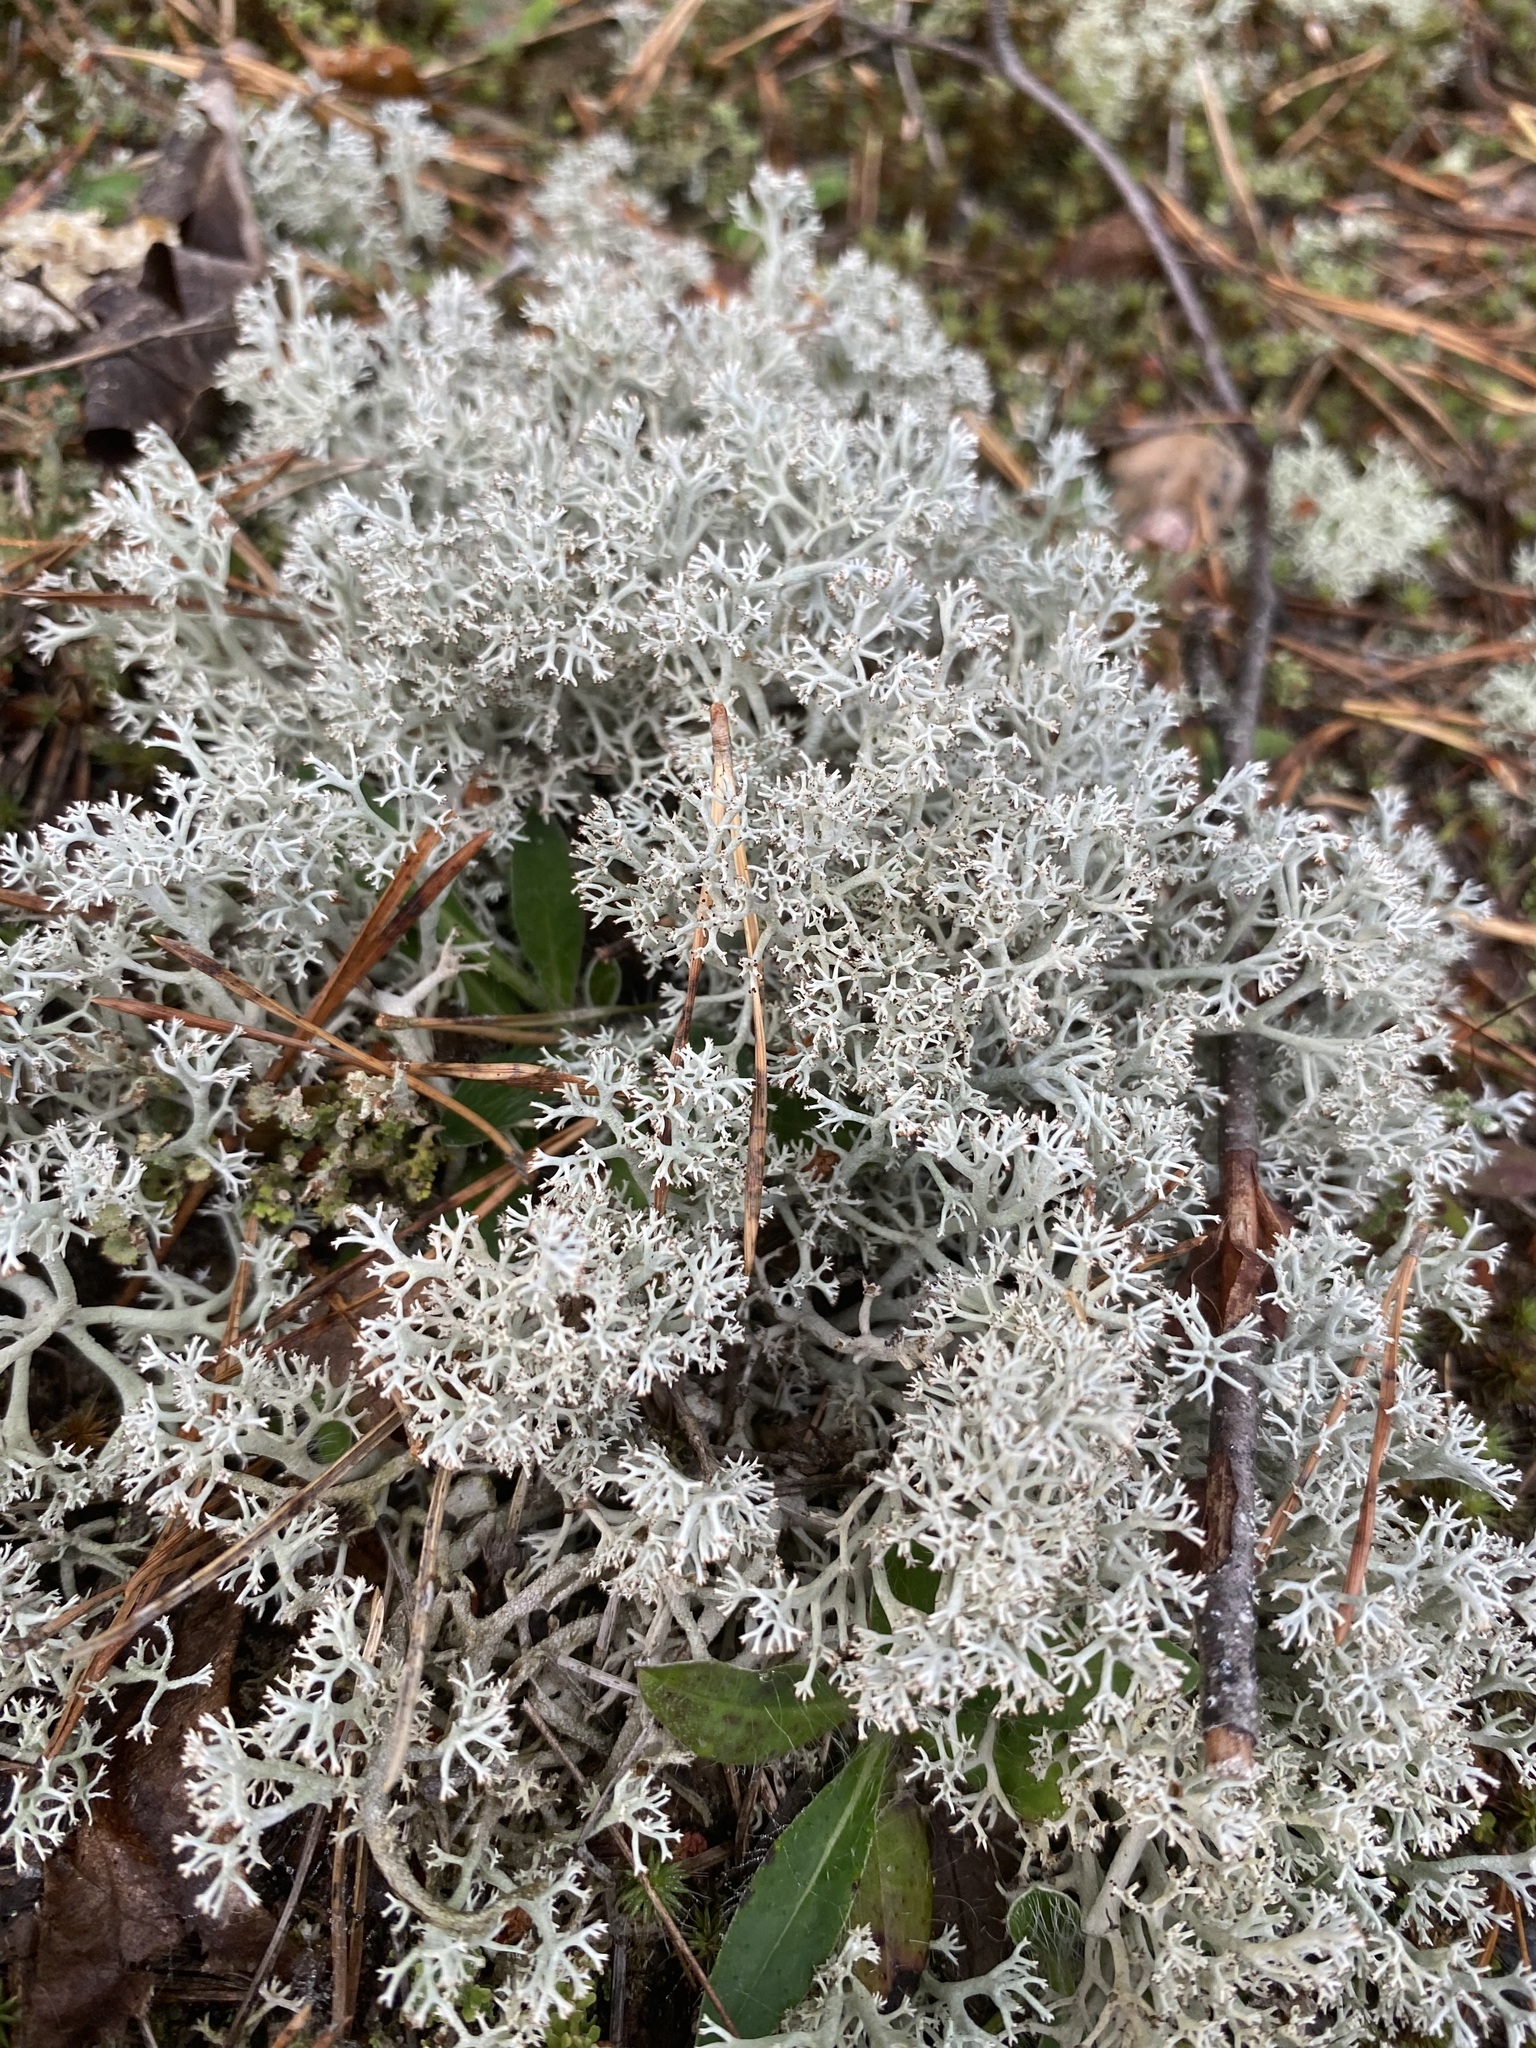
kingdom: Fungi
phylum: Ascomycota
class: Lecanoromycetes
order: Lecanorales
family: Cladoniaceae
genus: Cladonia
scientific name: Cladonia rangiferina
